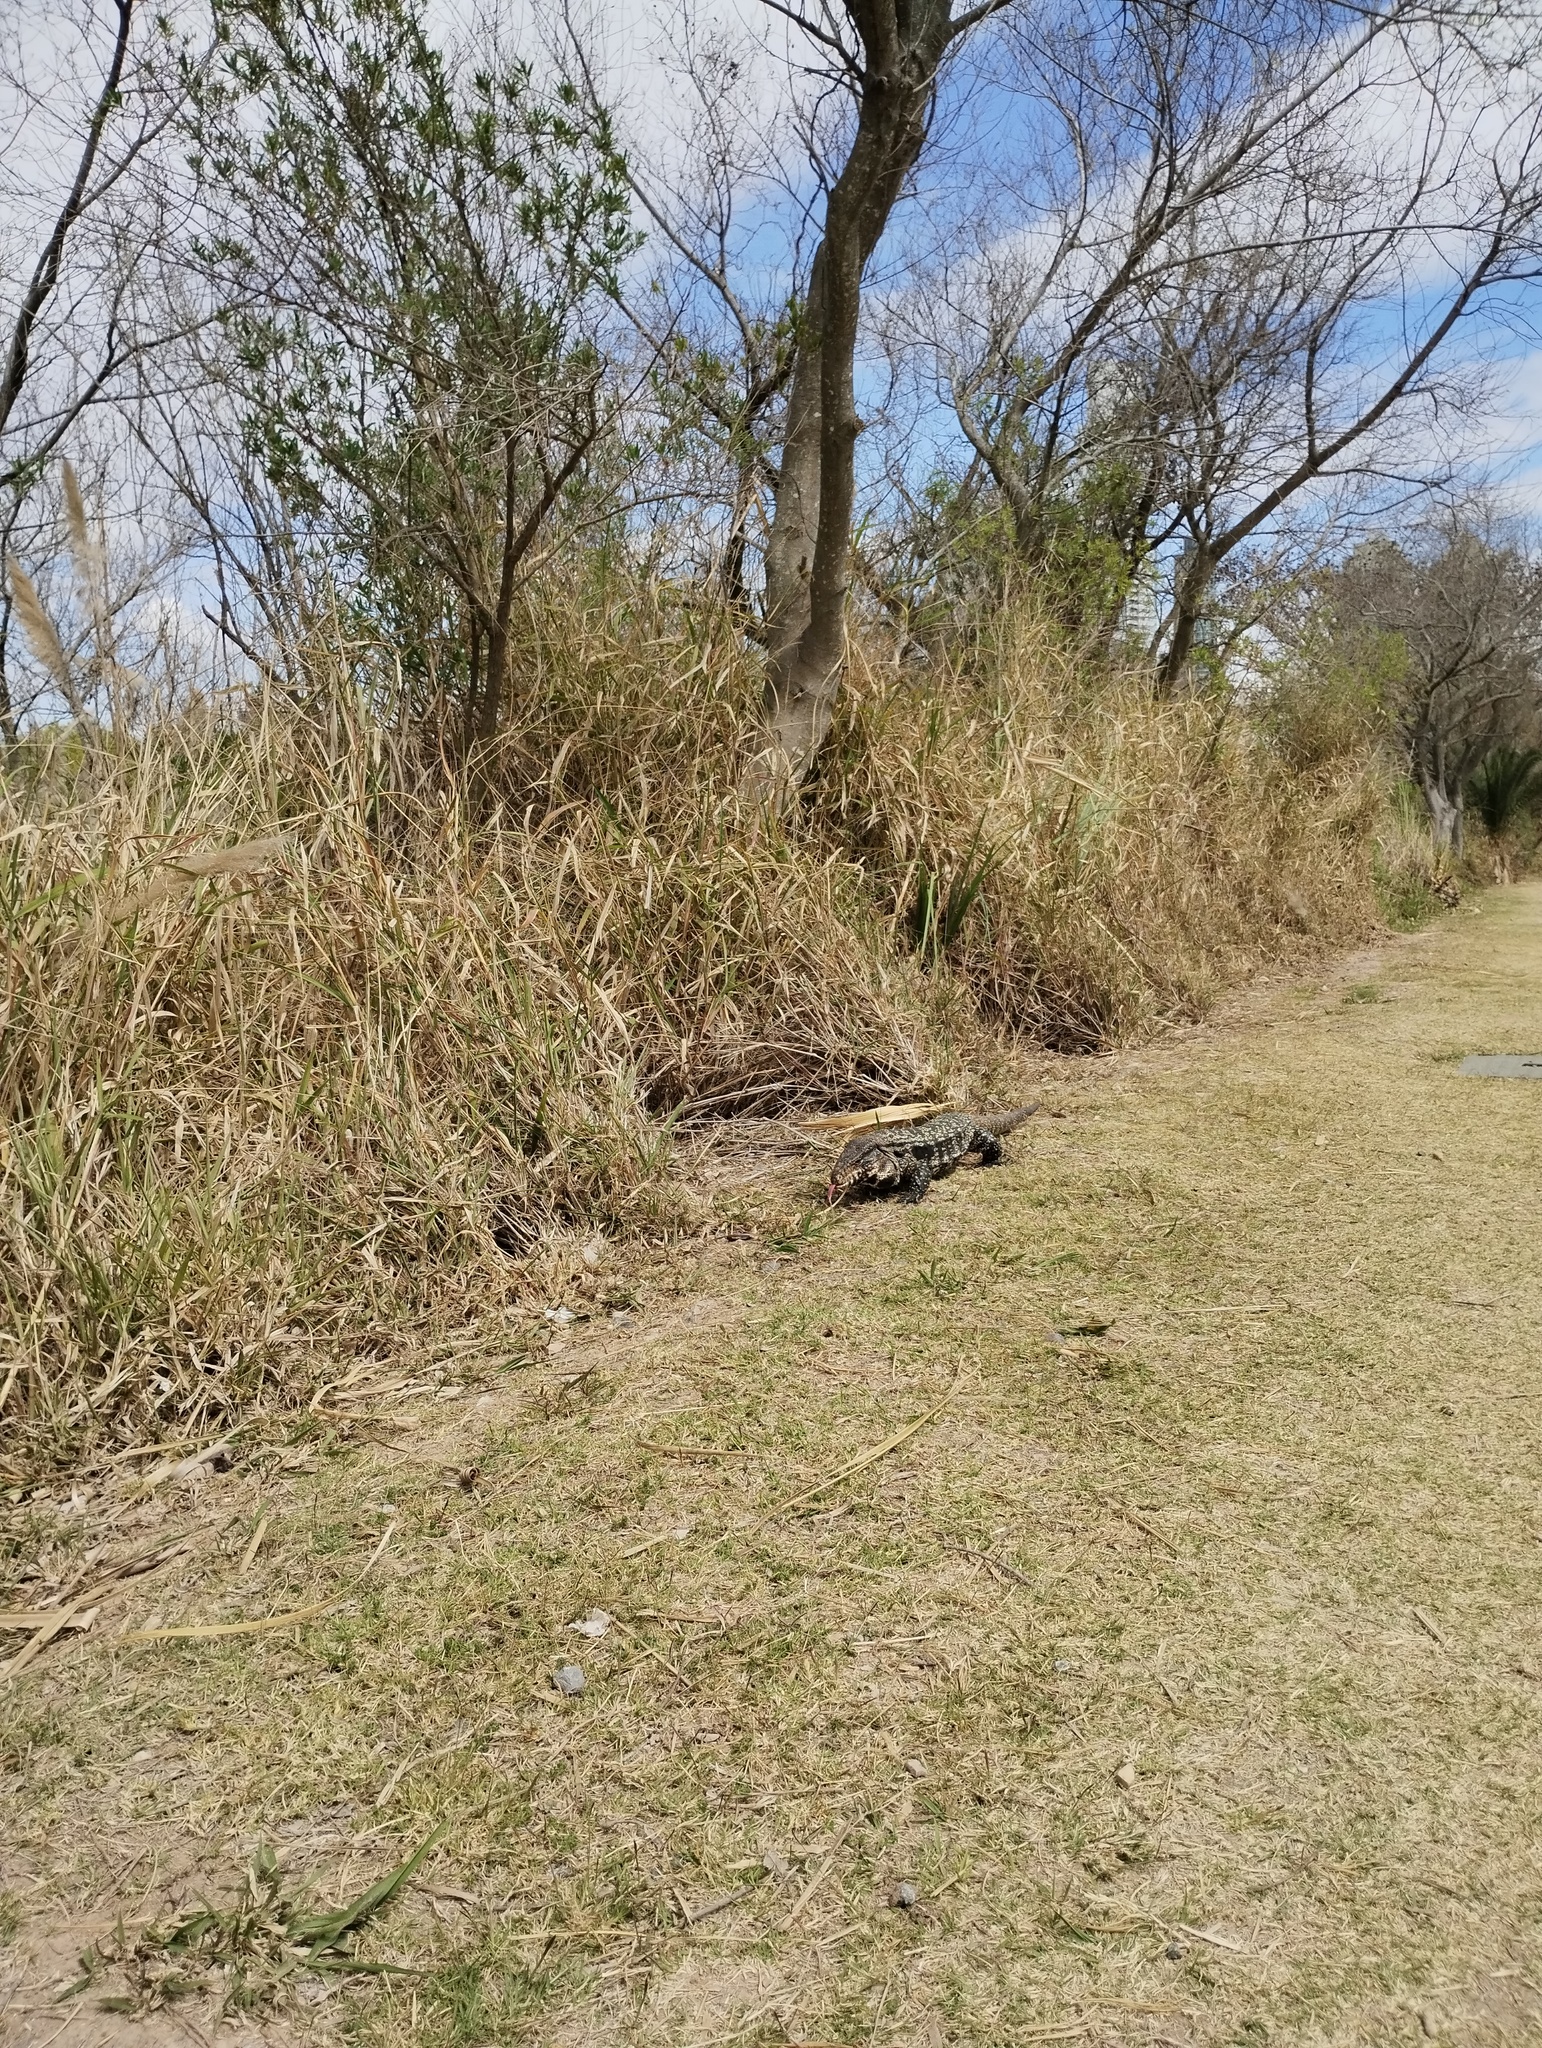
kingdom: Animalia
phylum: Chordata
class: Squamata
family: Teiidae
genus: Salvator
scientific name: Salvator merianae
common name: Argentine black and white tegu
